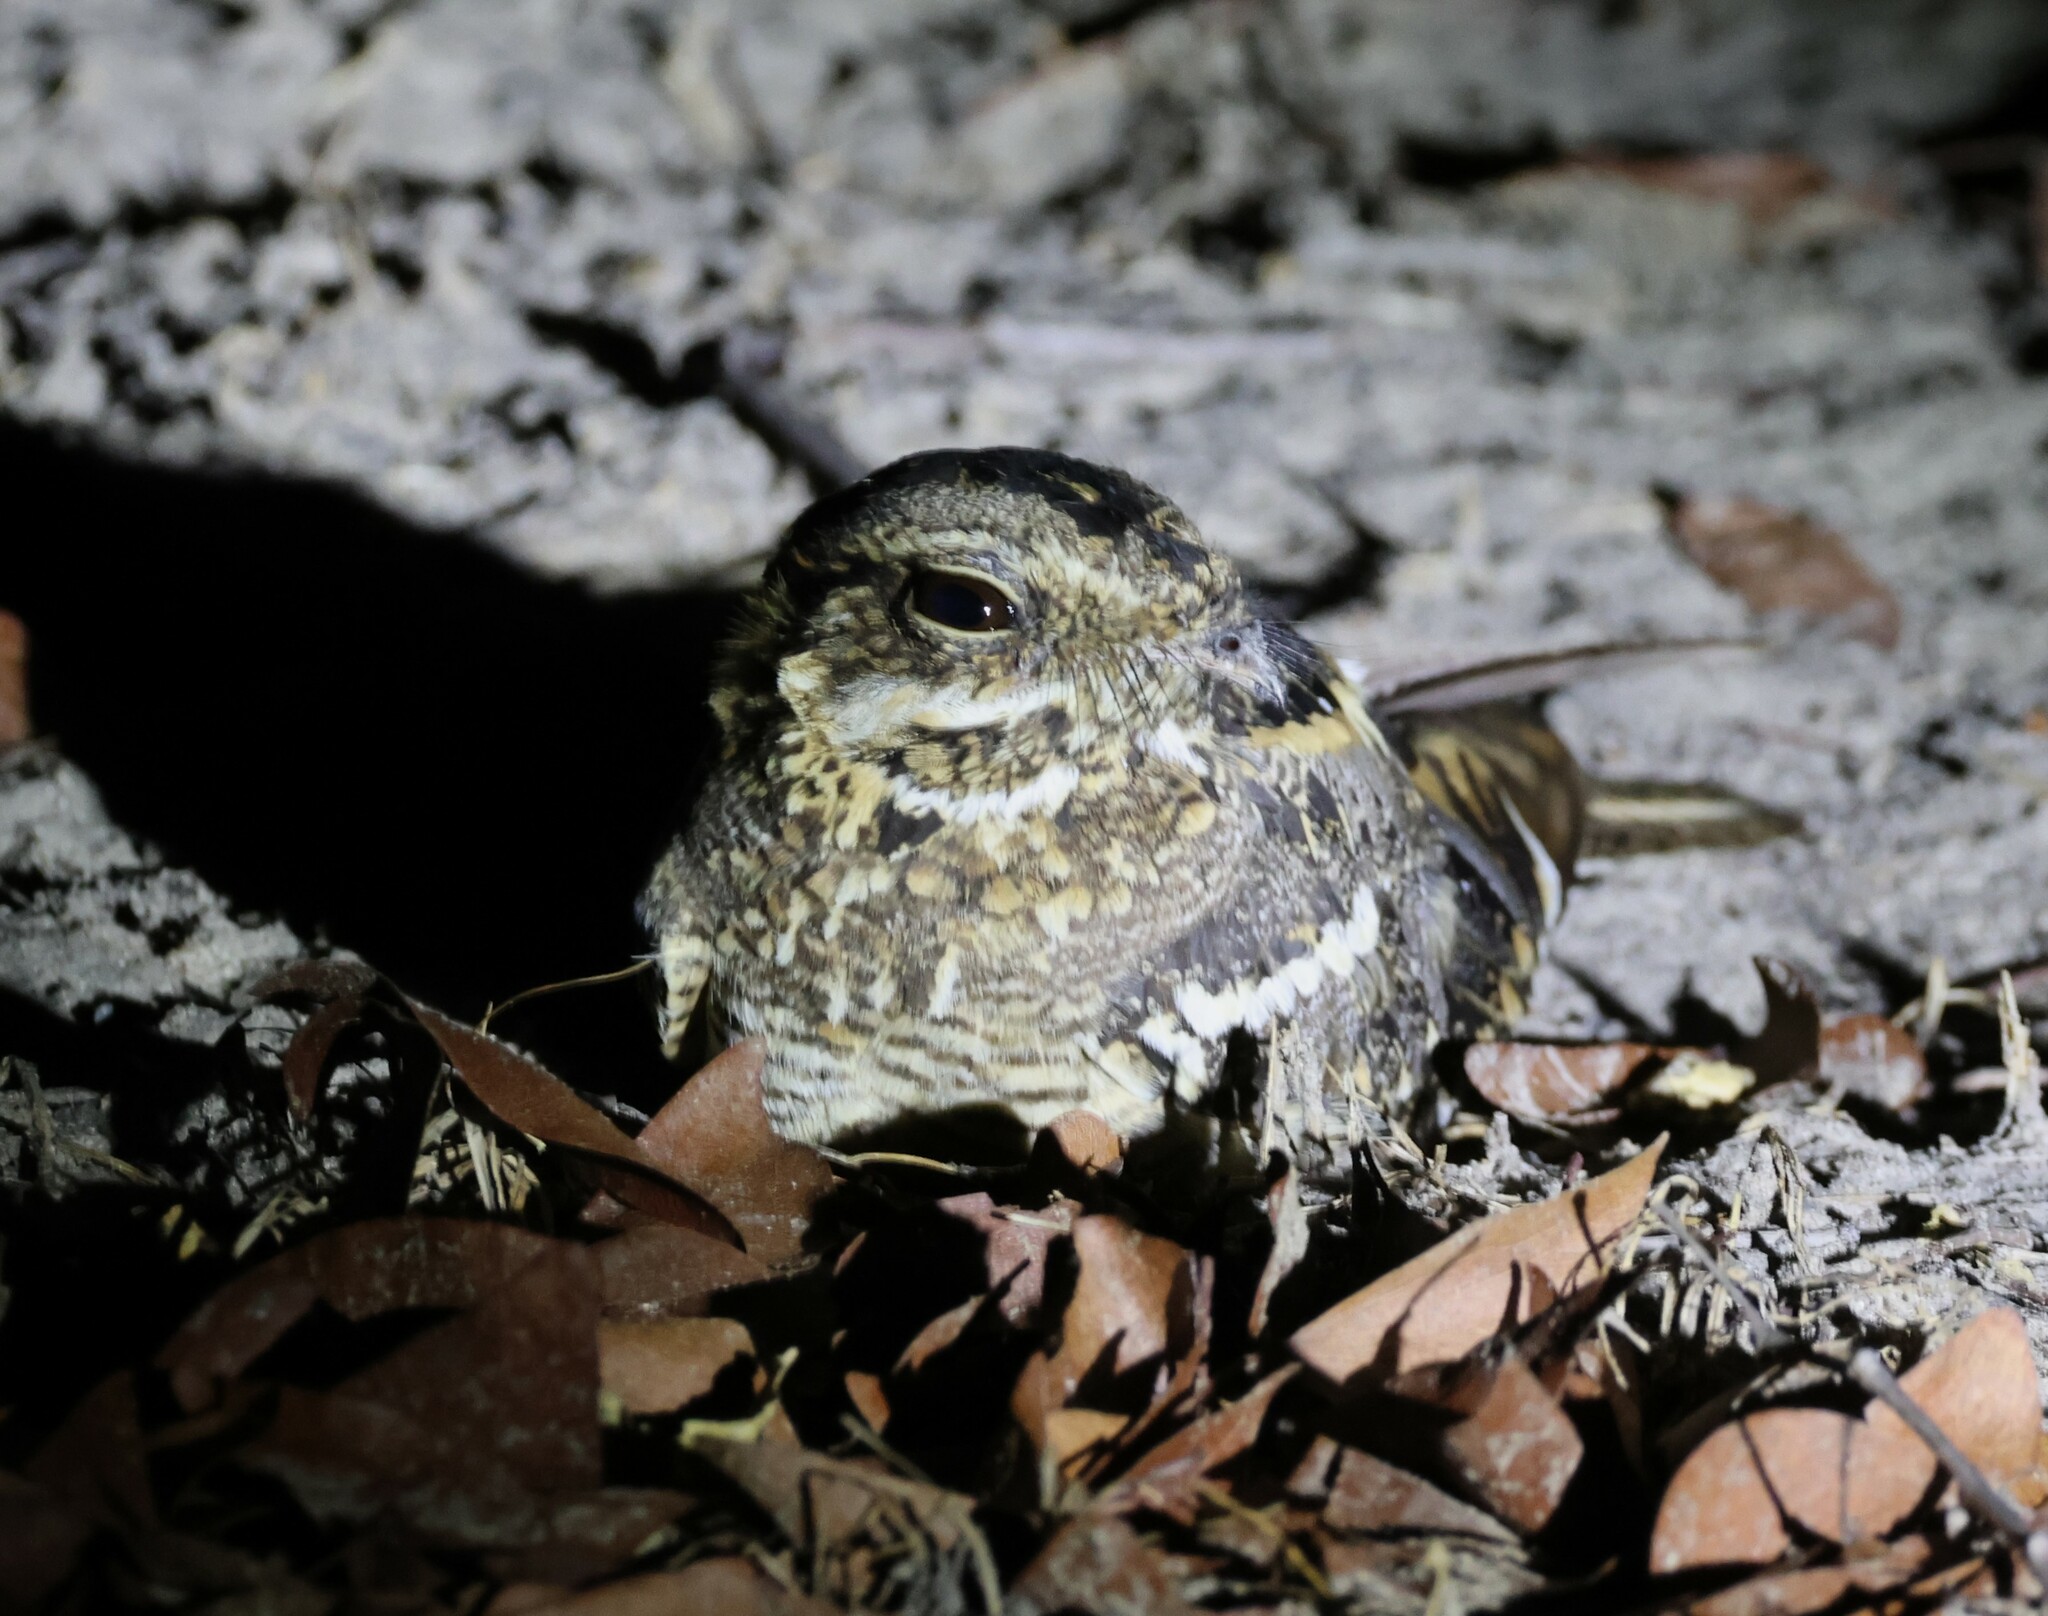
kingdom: Animalia
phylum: Chordata
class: Aves
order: Caprimulgiformes
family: Caprimulgidae
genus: Caprimulgus
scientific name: Caprimulgus fossii
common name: Square-tailed nightjar
